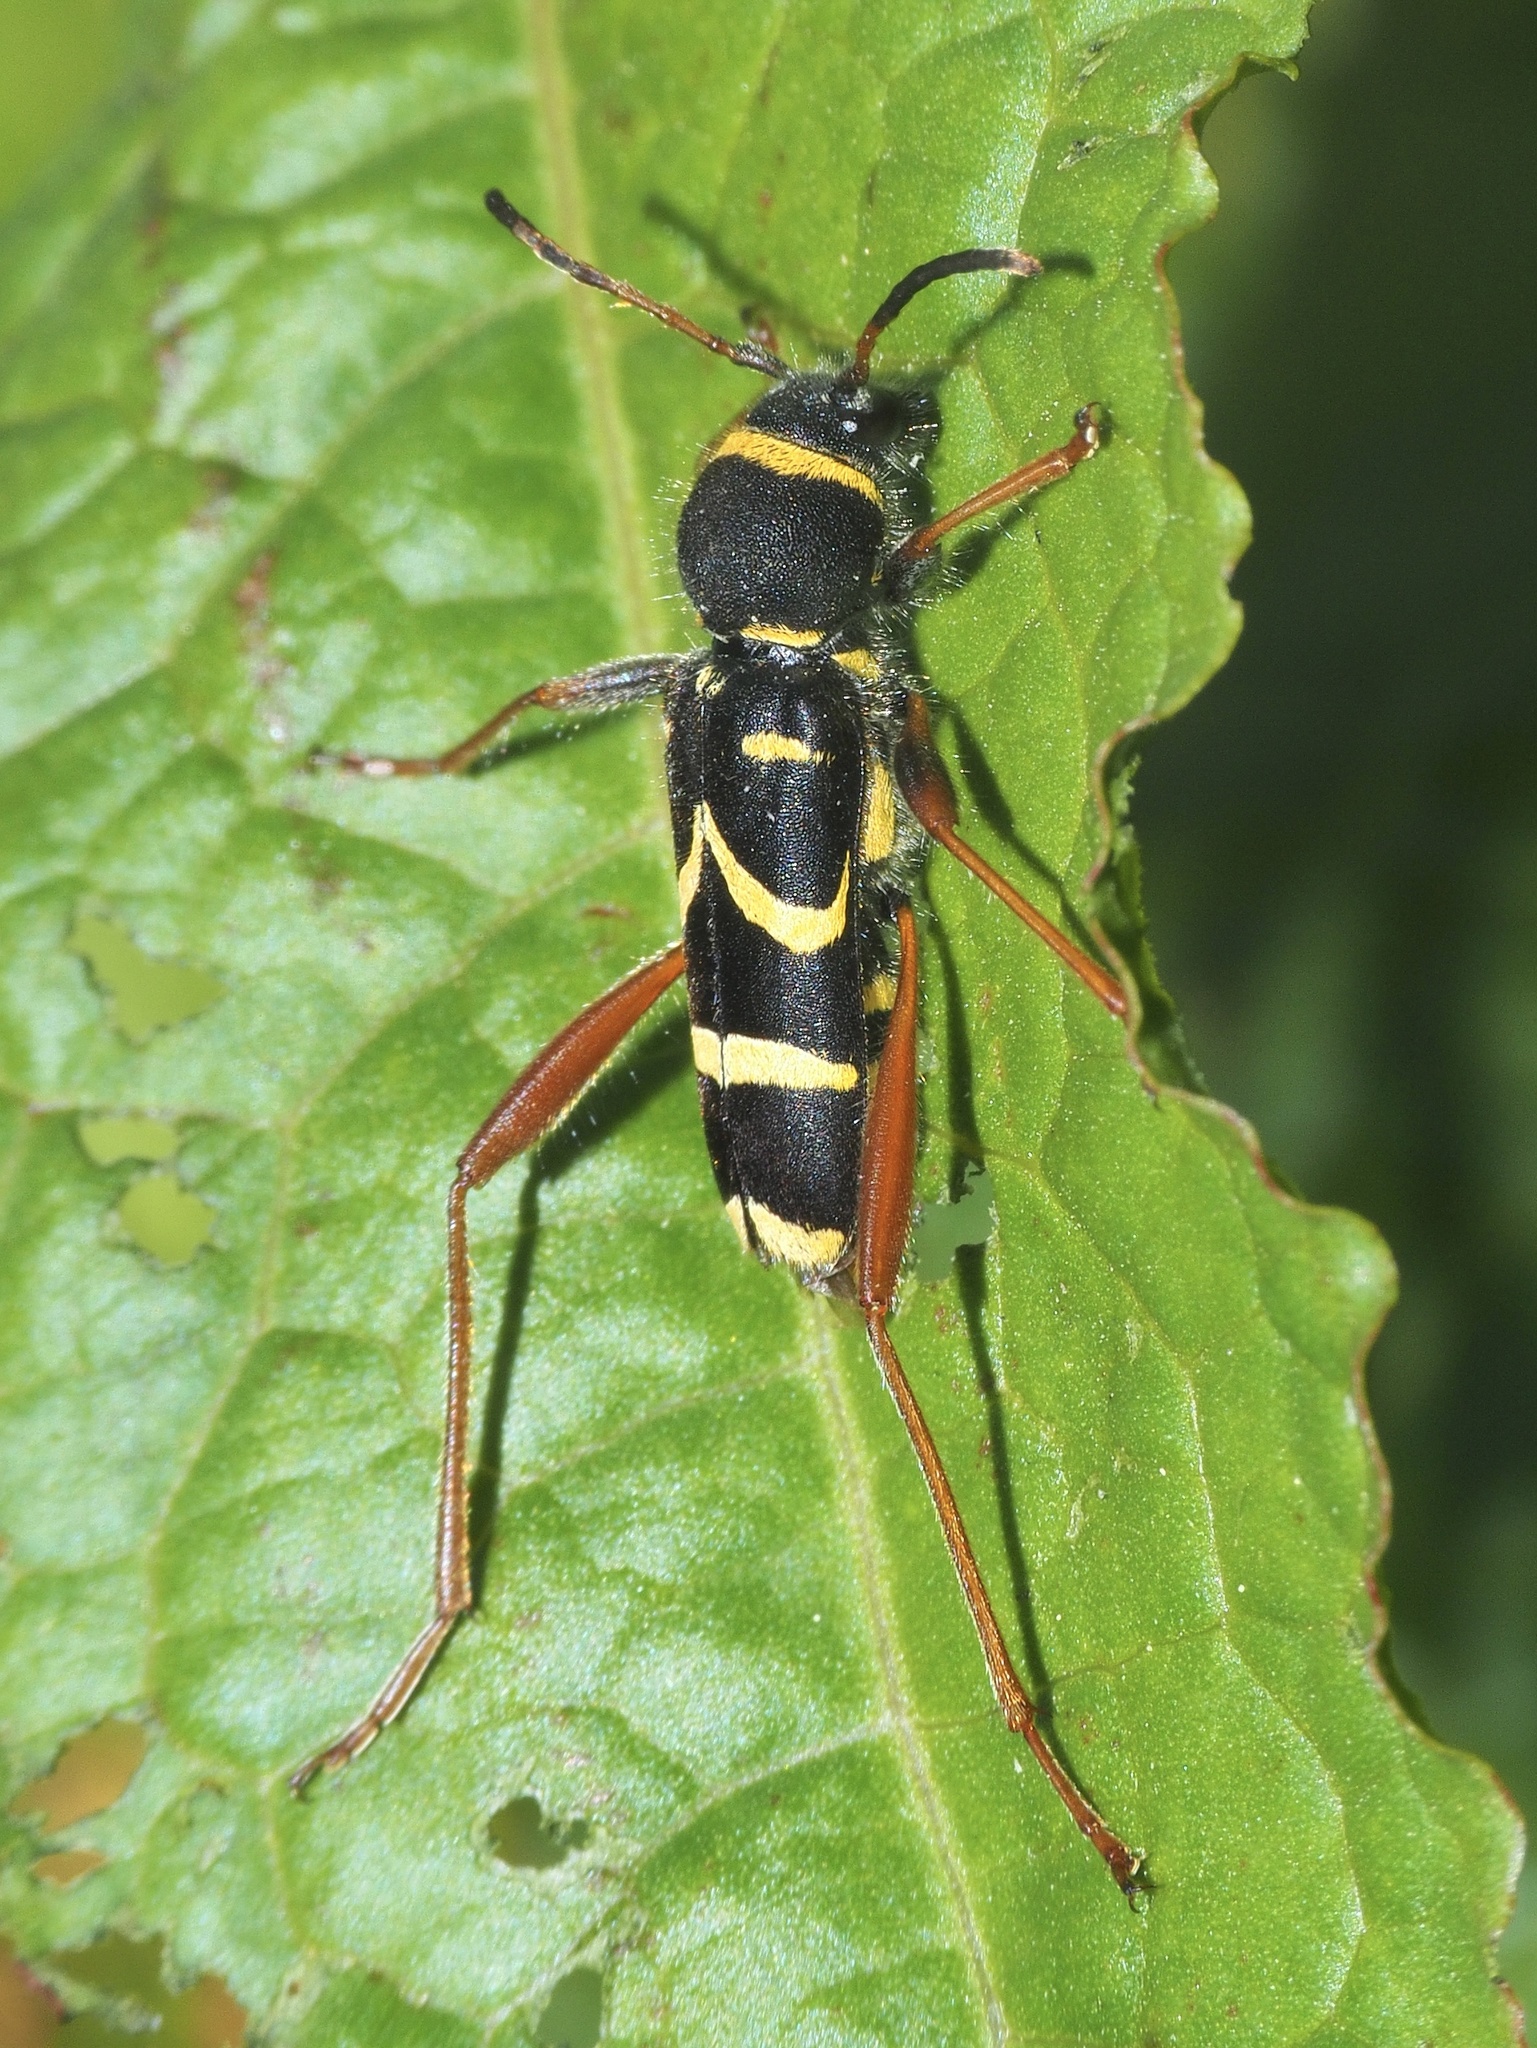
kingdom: Animalia
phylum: Arthropoda
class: Insecta
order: Coleoptera
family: Cerambycidae
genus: Clytus
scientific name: Clytus arietis
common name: Wasp beetle
